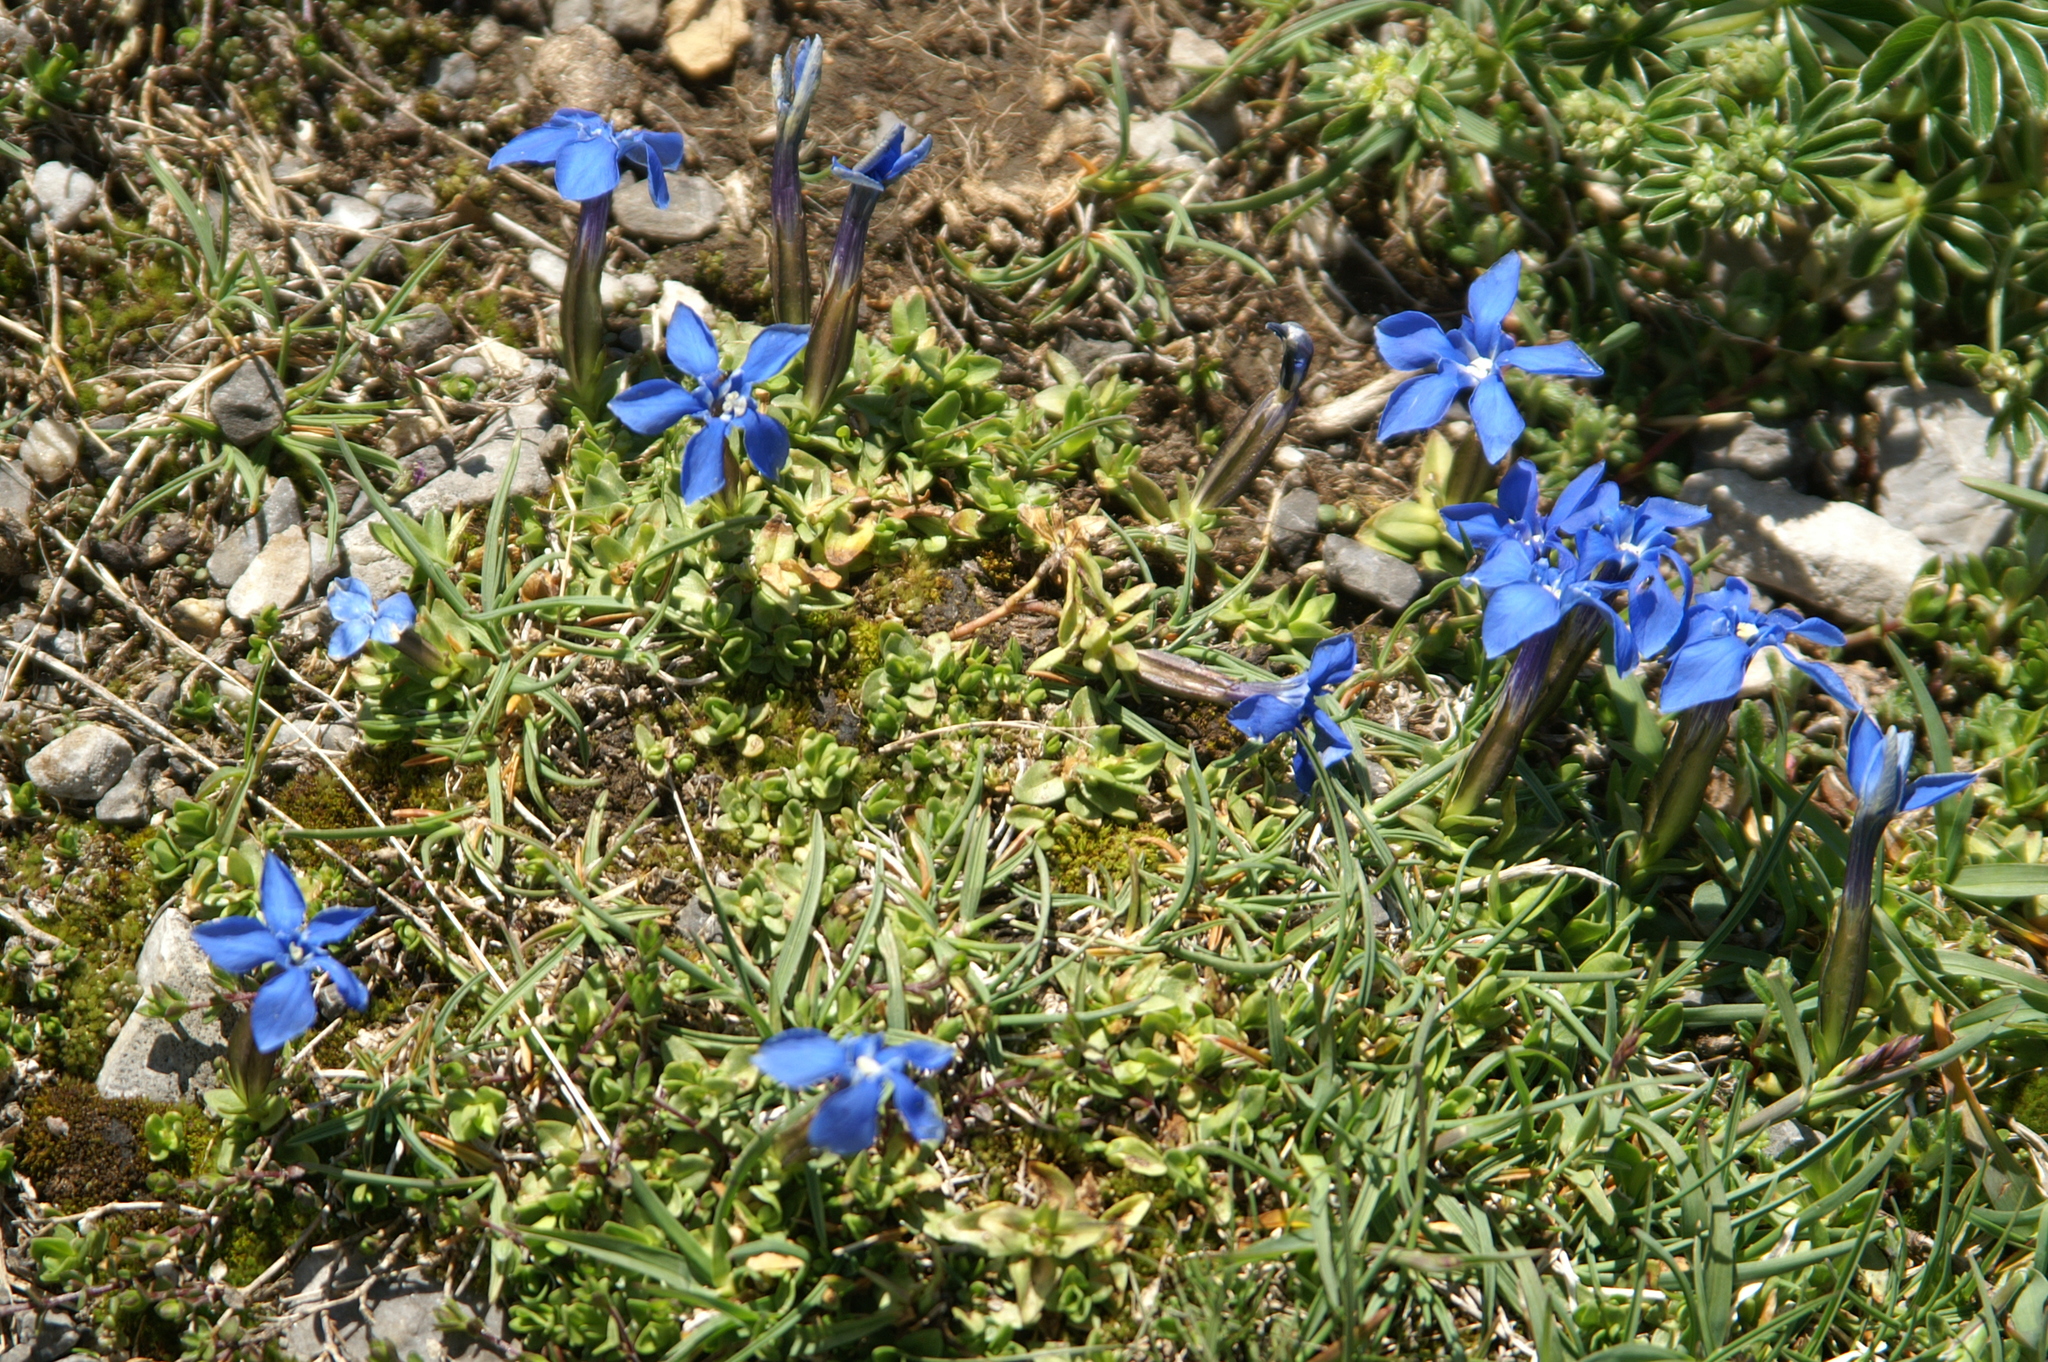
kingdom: Plantae
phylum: Tracheophyta
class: Magnoliopsida
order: Gentianales
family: Gentianaceae
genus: Gentiana
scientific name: Gentiana verna
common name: Spring gentian
